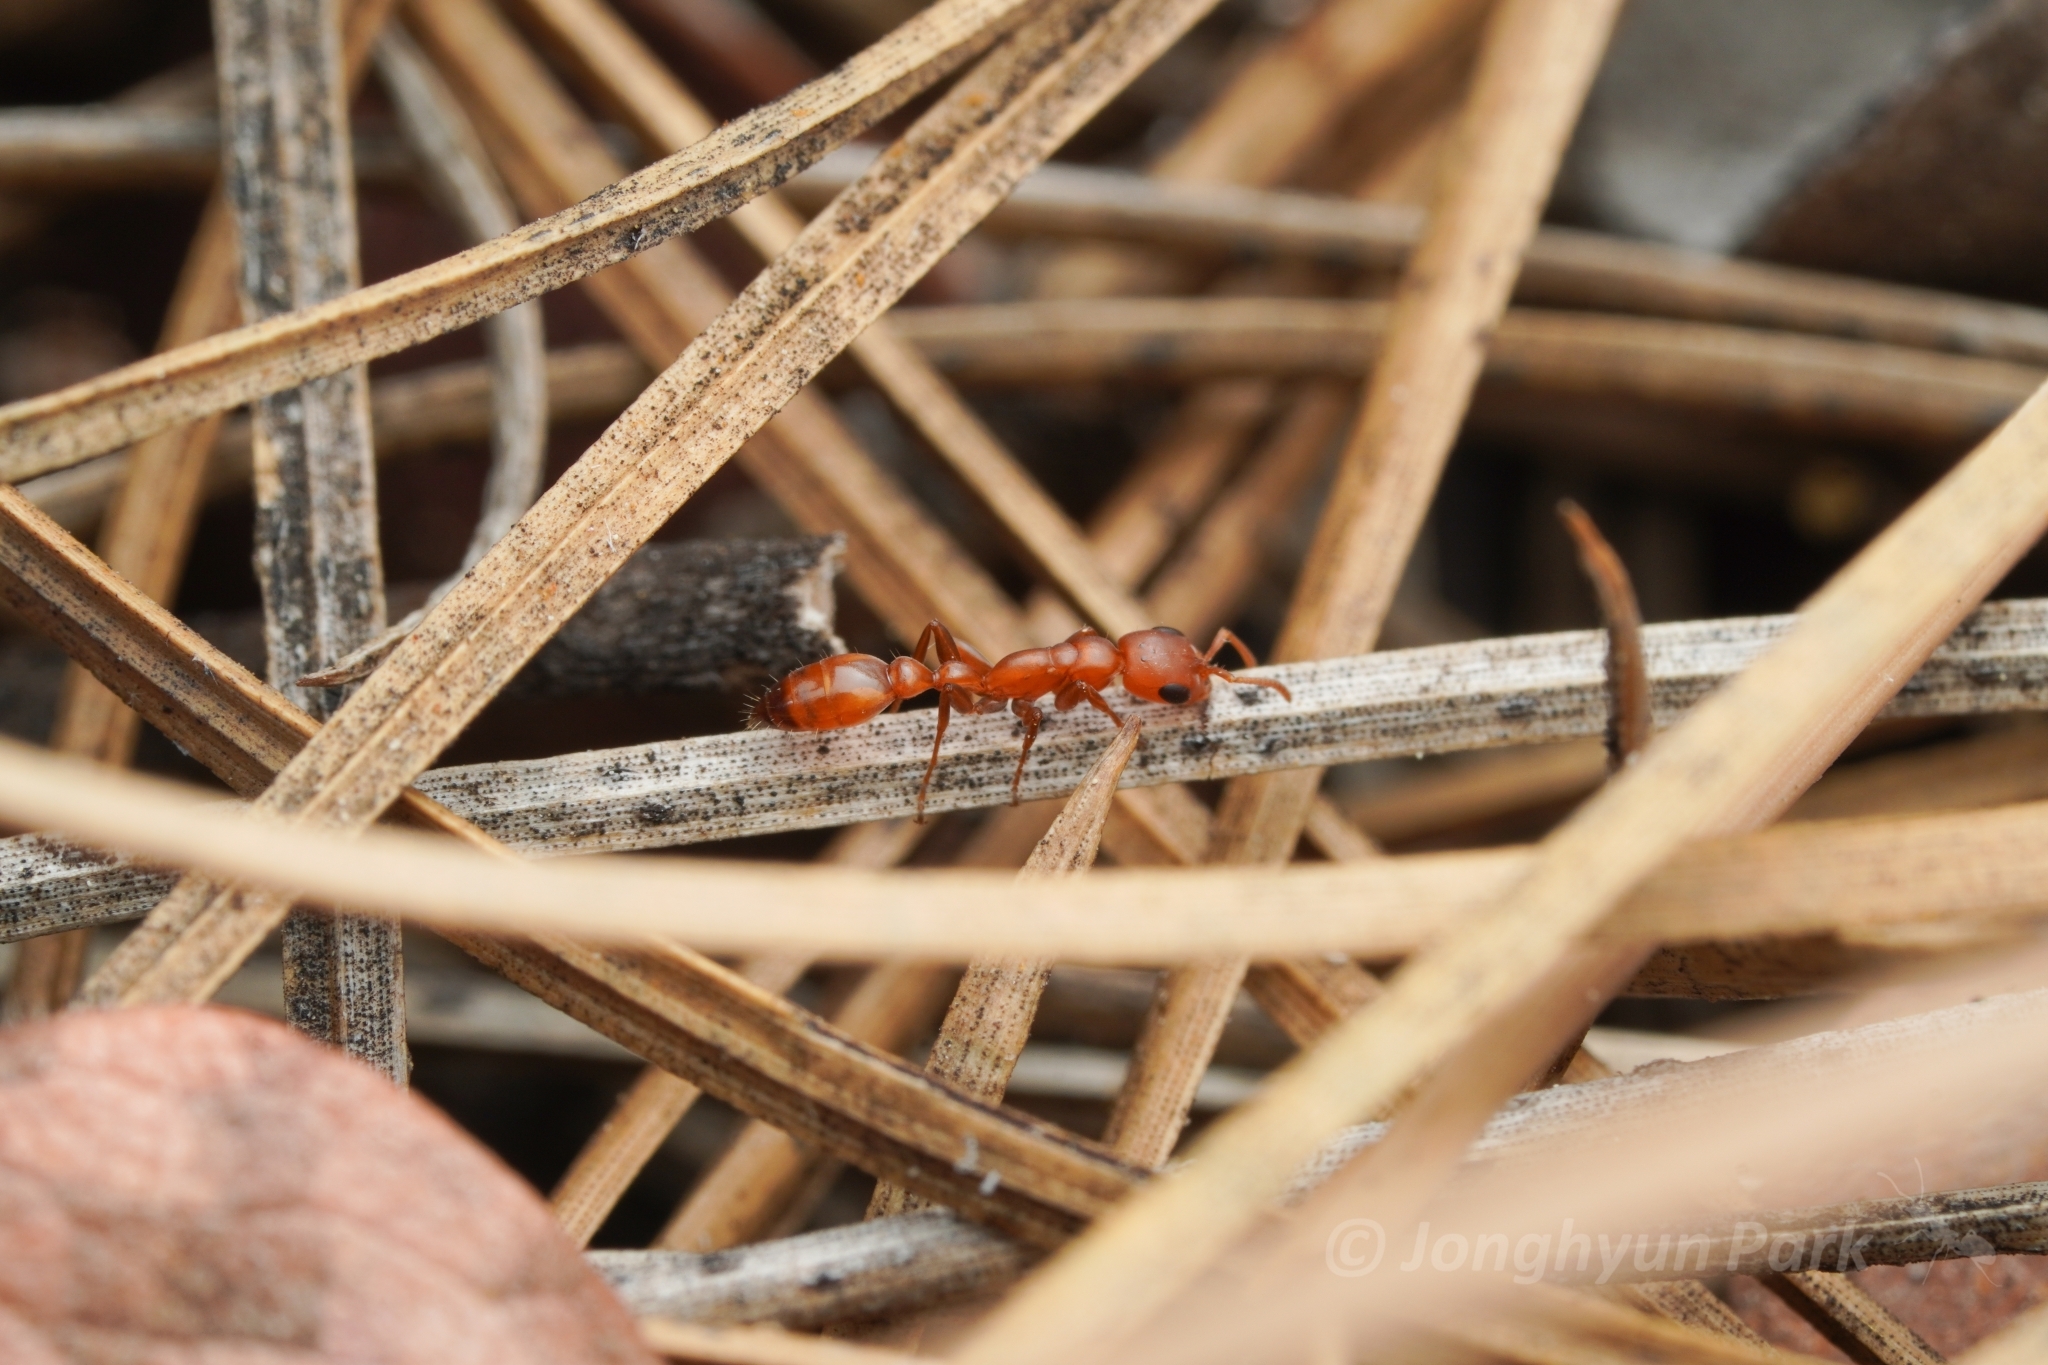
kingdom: Animalia
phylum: Arthropoda
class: Insecta
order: Hymenoptera
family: Formicidae
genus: Pseudomyrmex
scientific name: Pseudomyrmex apache
